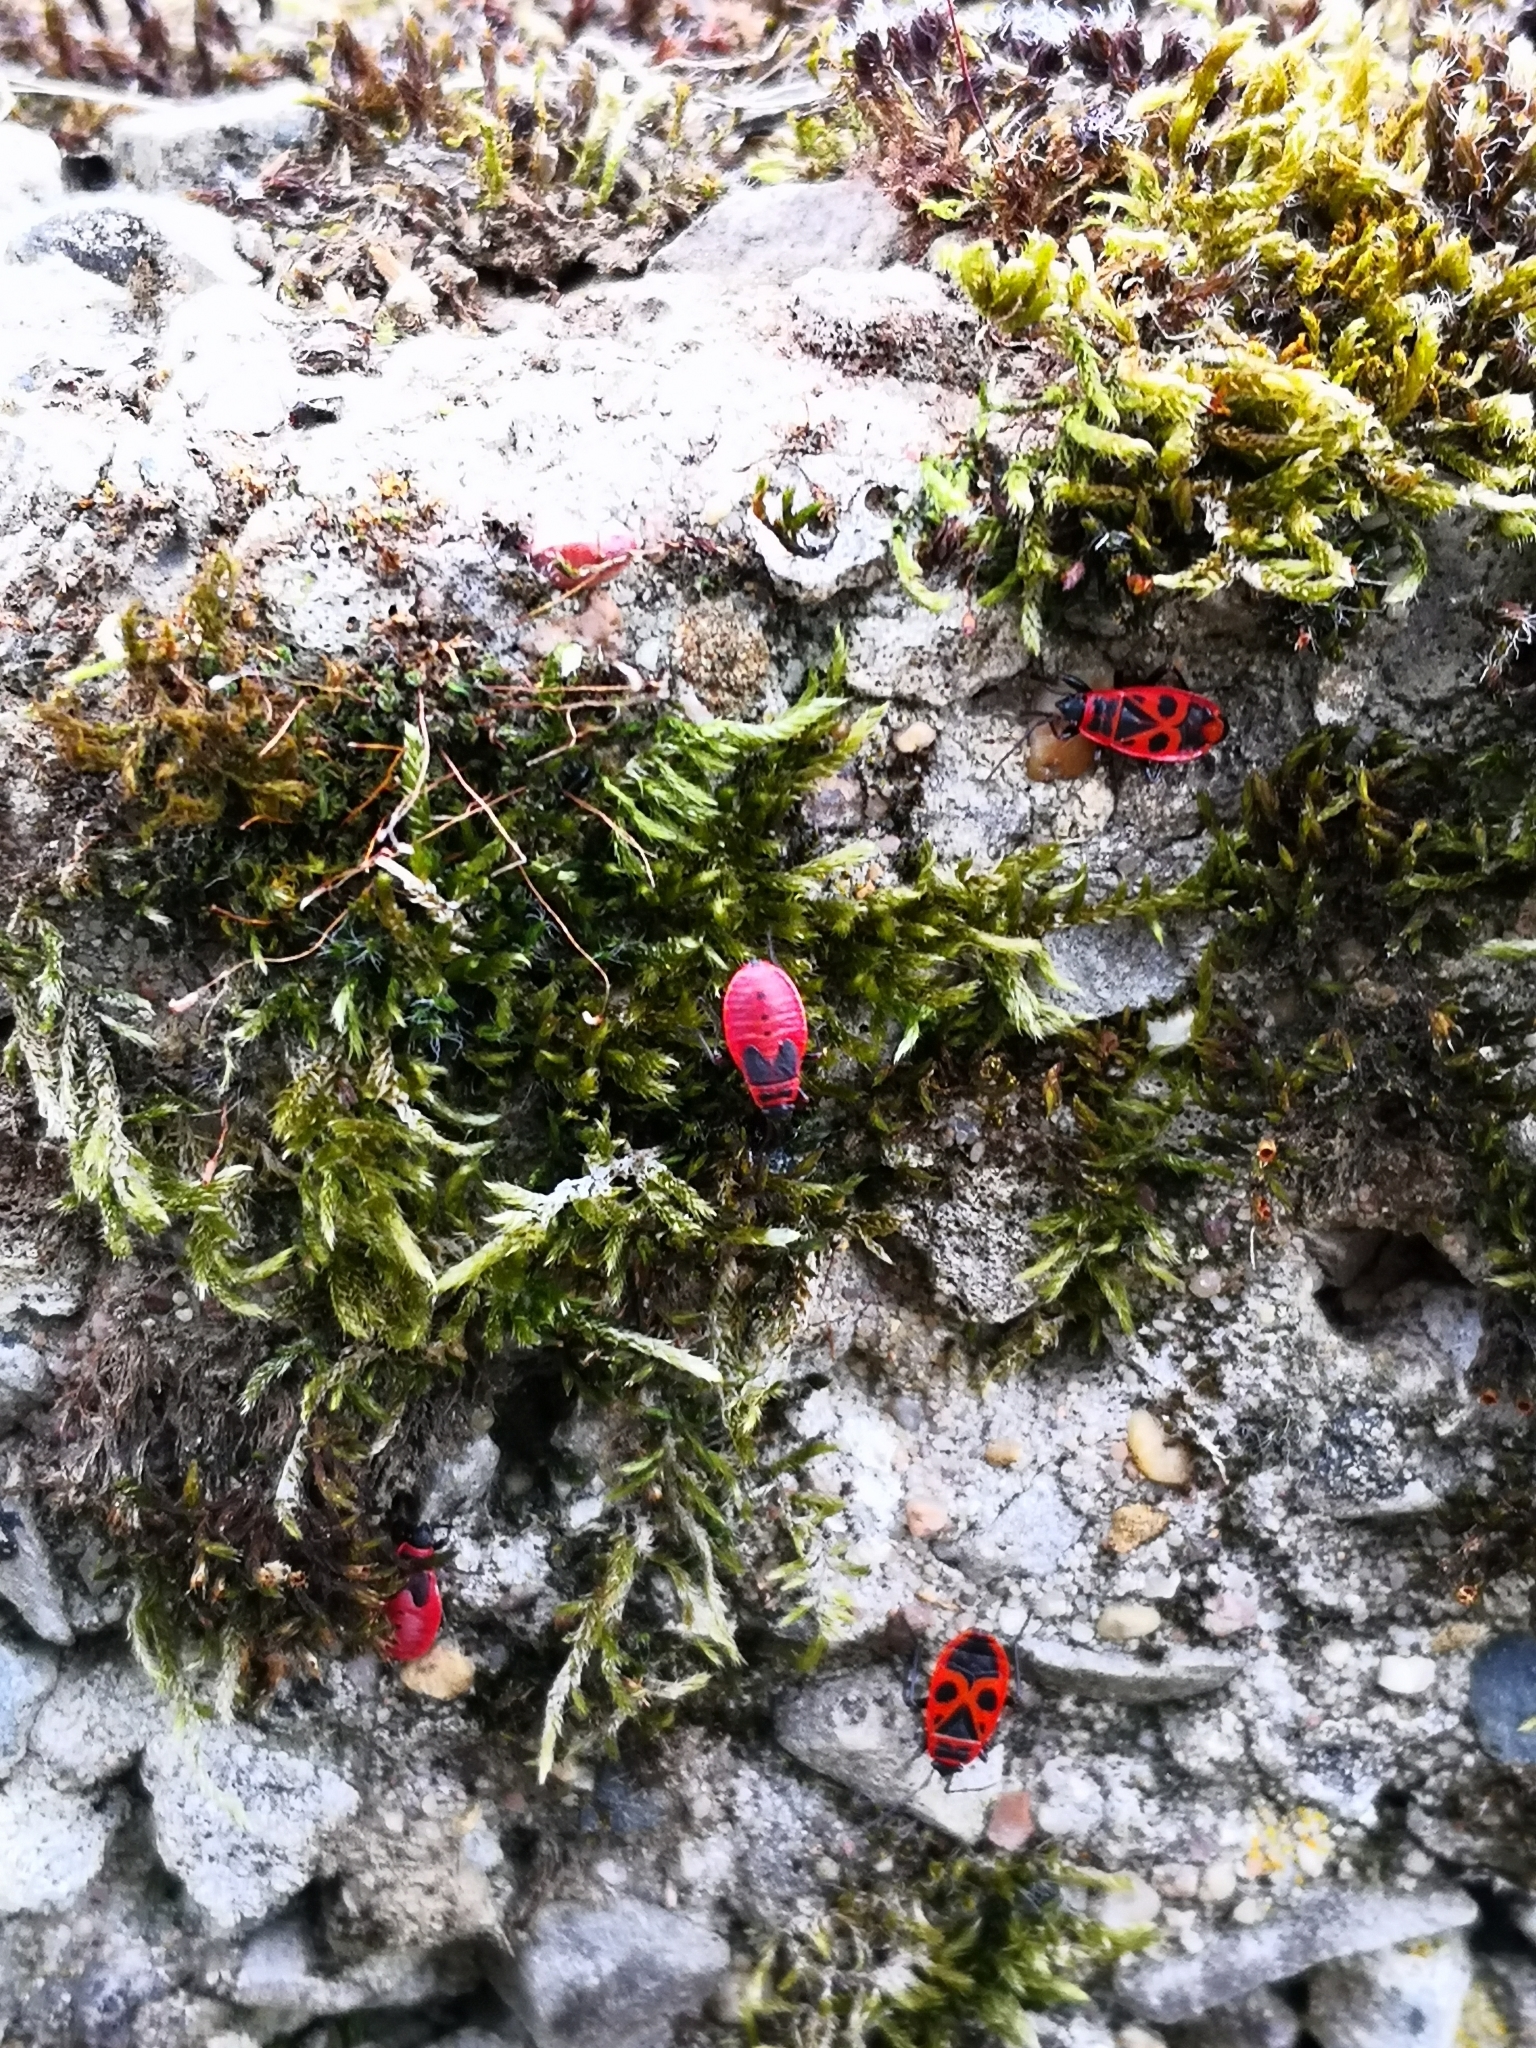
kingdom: Animalia
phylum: Arthropoda
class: Insecta
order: Hemiptera
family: Pyrrhocoridae
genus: Pyrrhocoris
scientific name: Pyrrhocoris apterus
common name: Firebug
